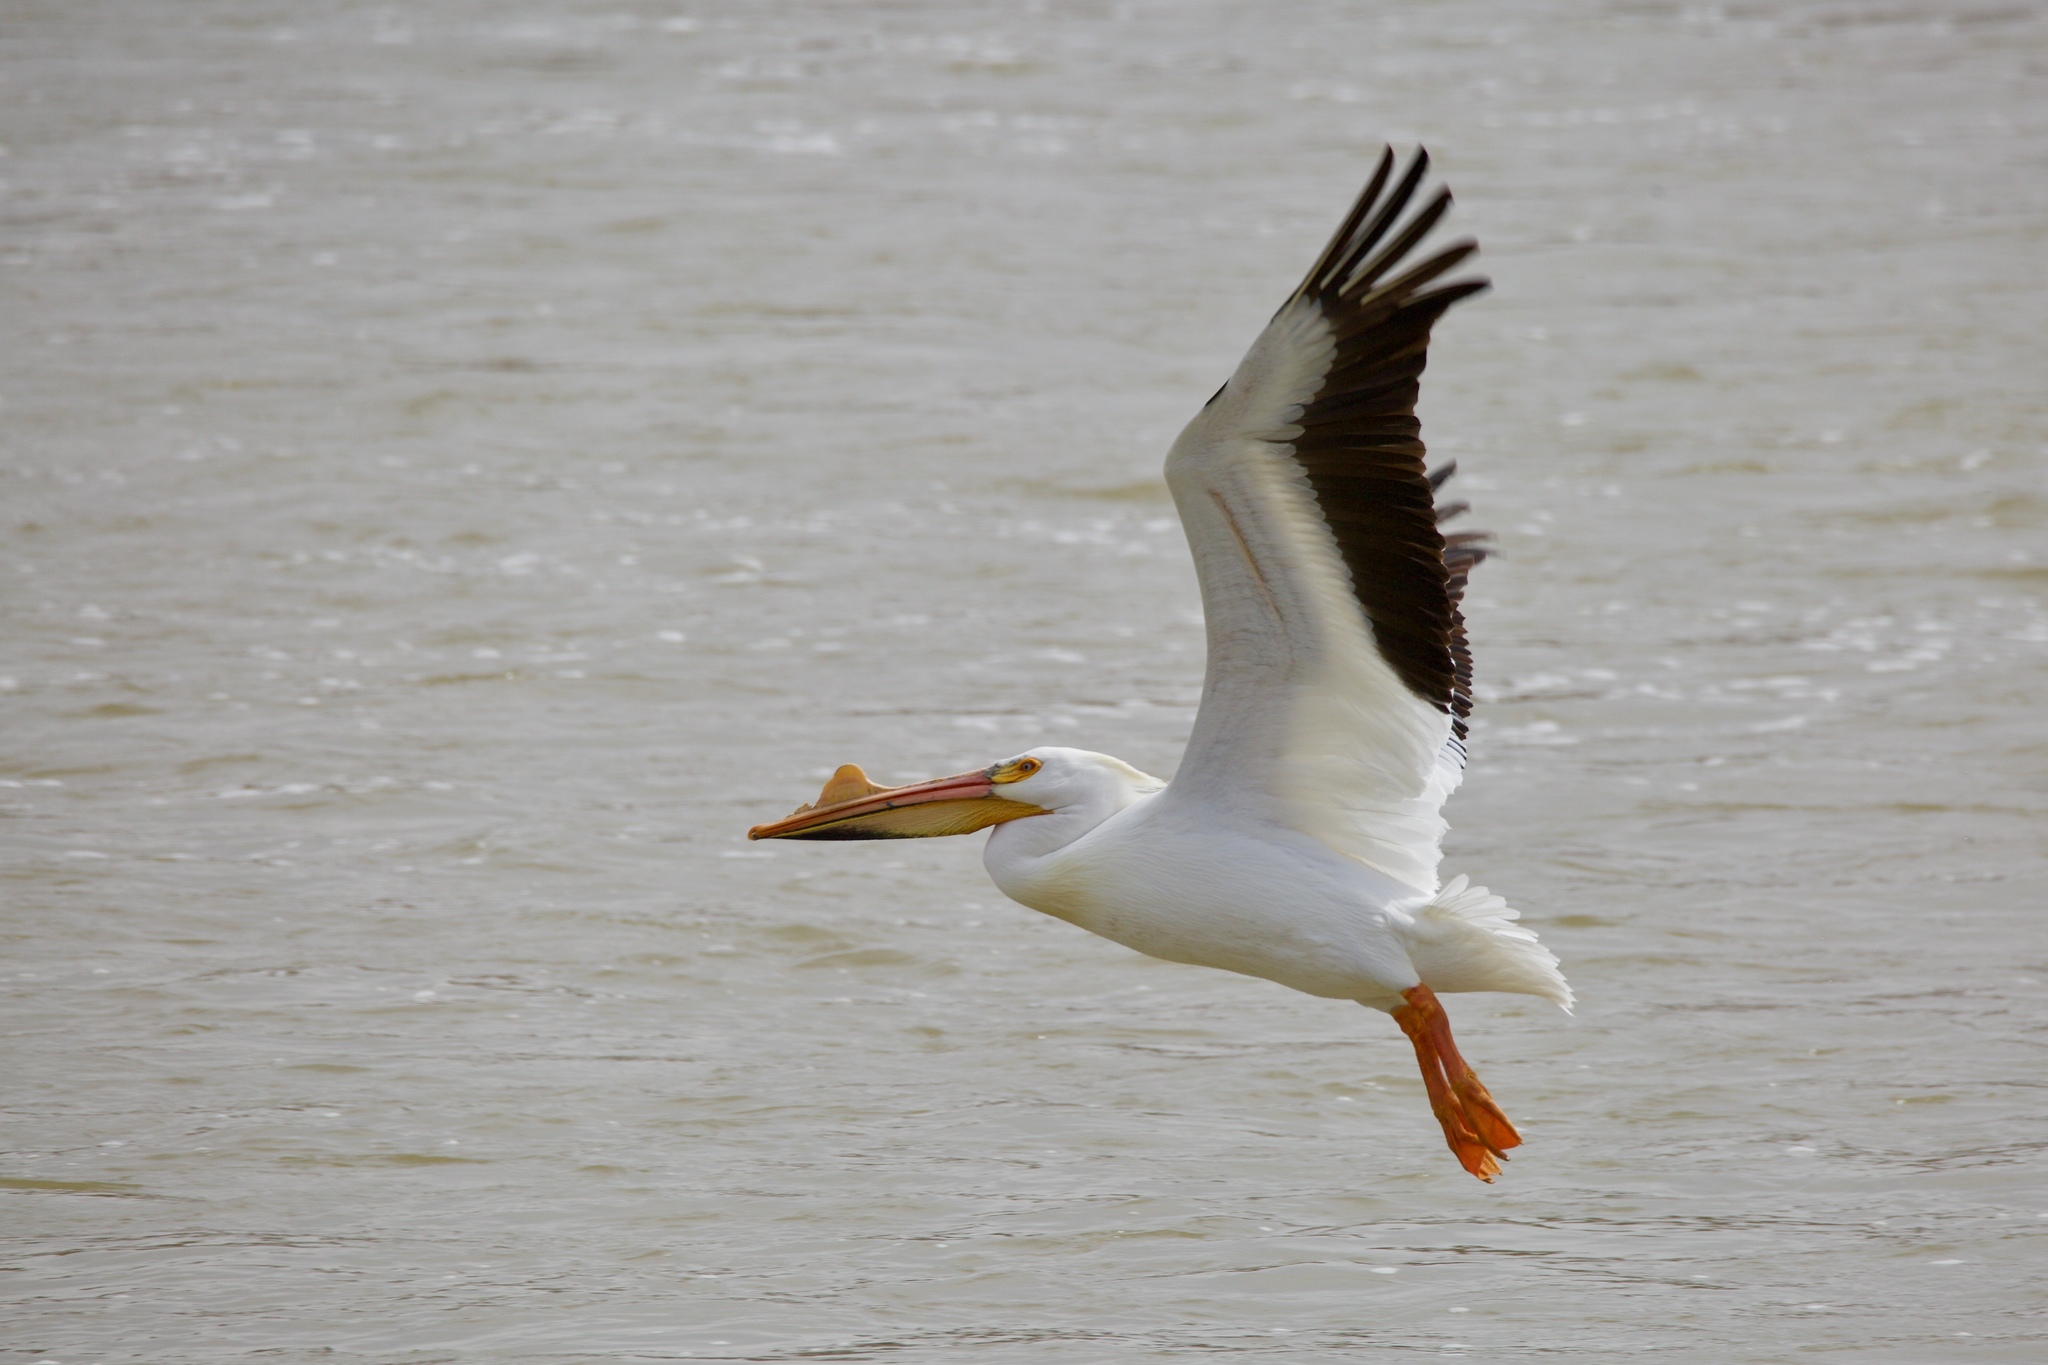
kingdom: Animalia
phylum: Chordata
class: Aves
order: Pelecaniformes
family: Pelecanidae
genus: Pelecanus
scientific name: Pelecanus erythrorhynchos
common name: American white pelican
